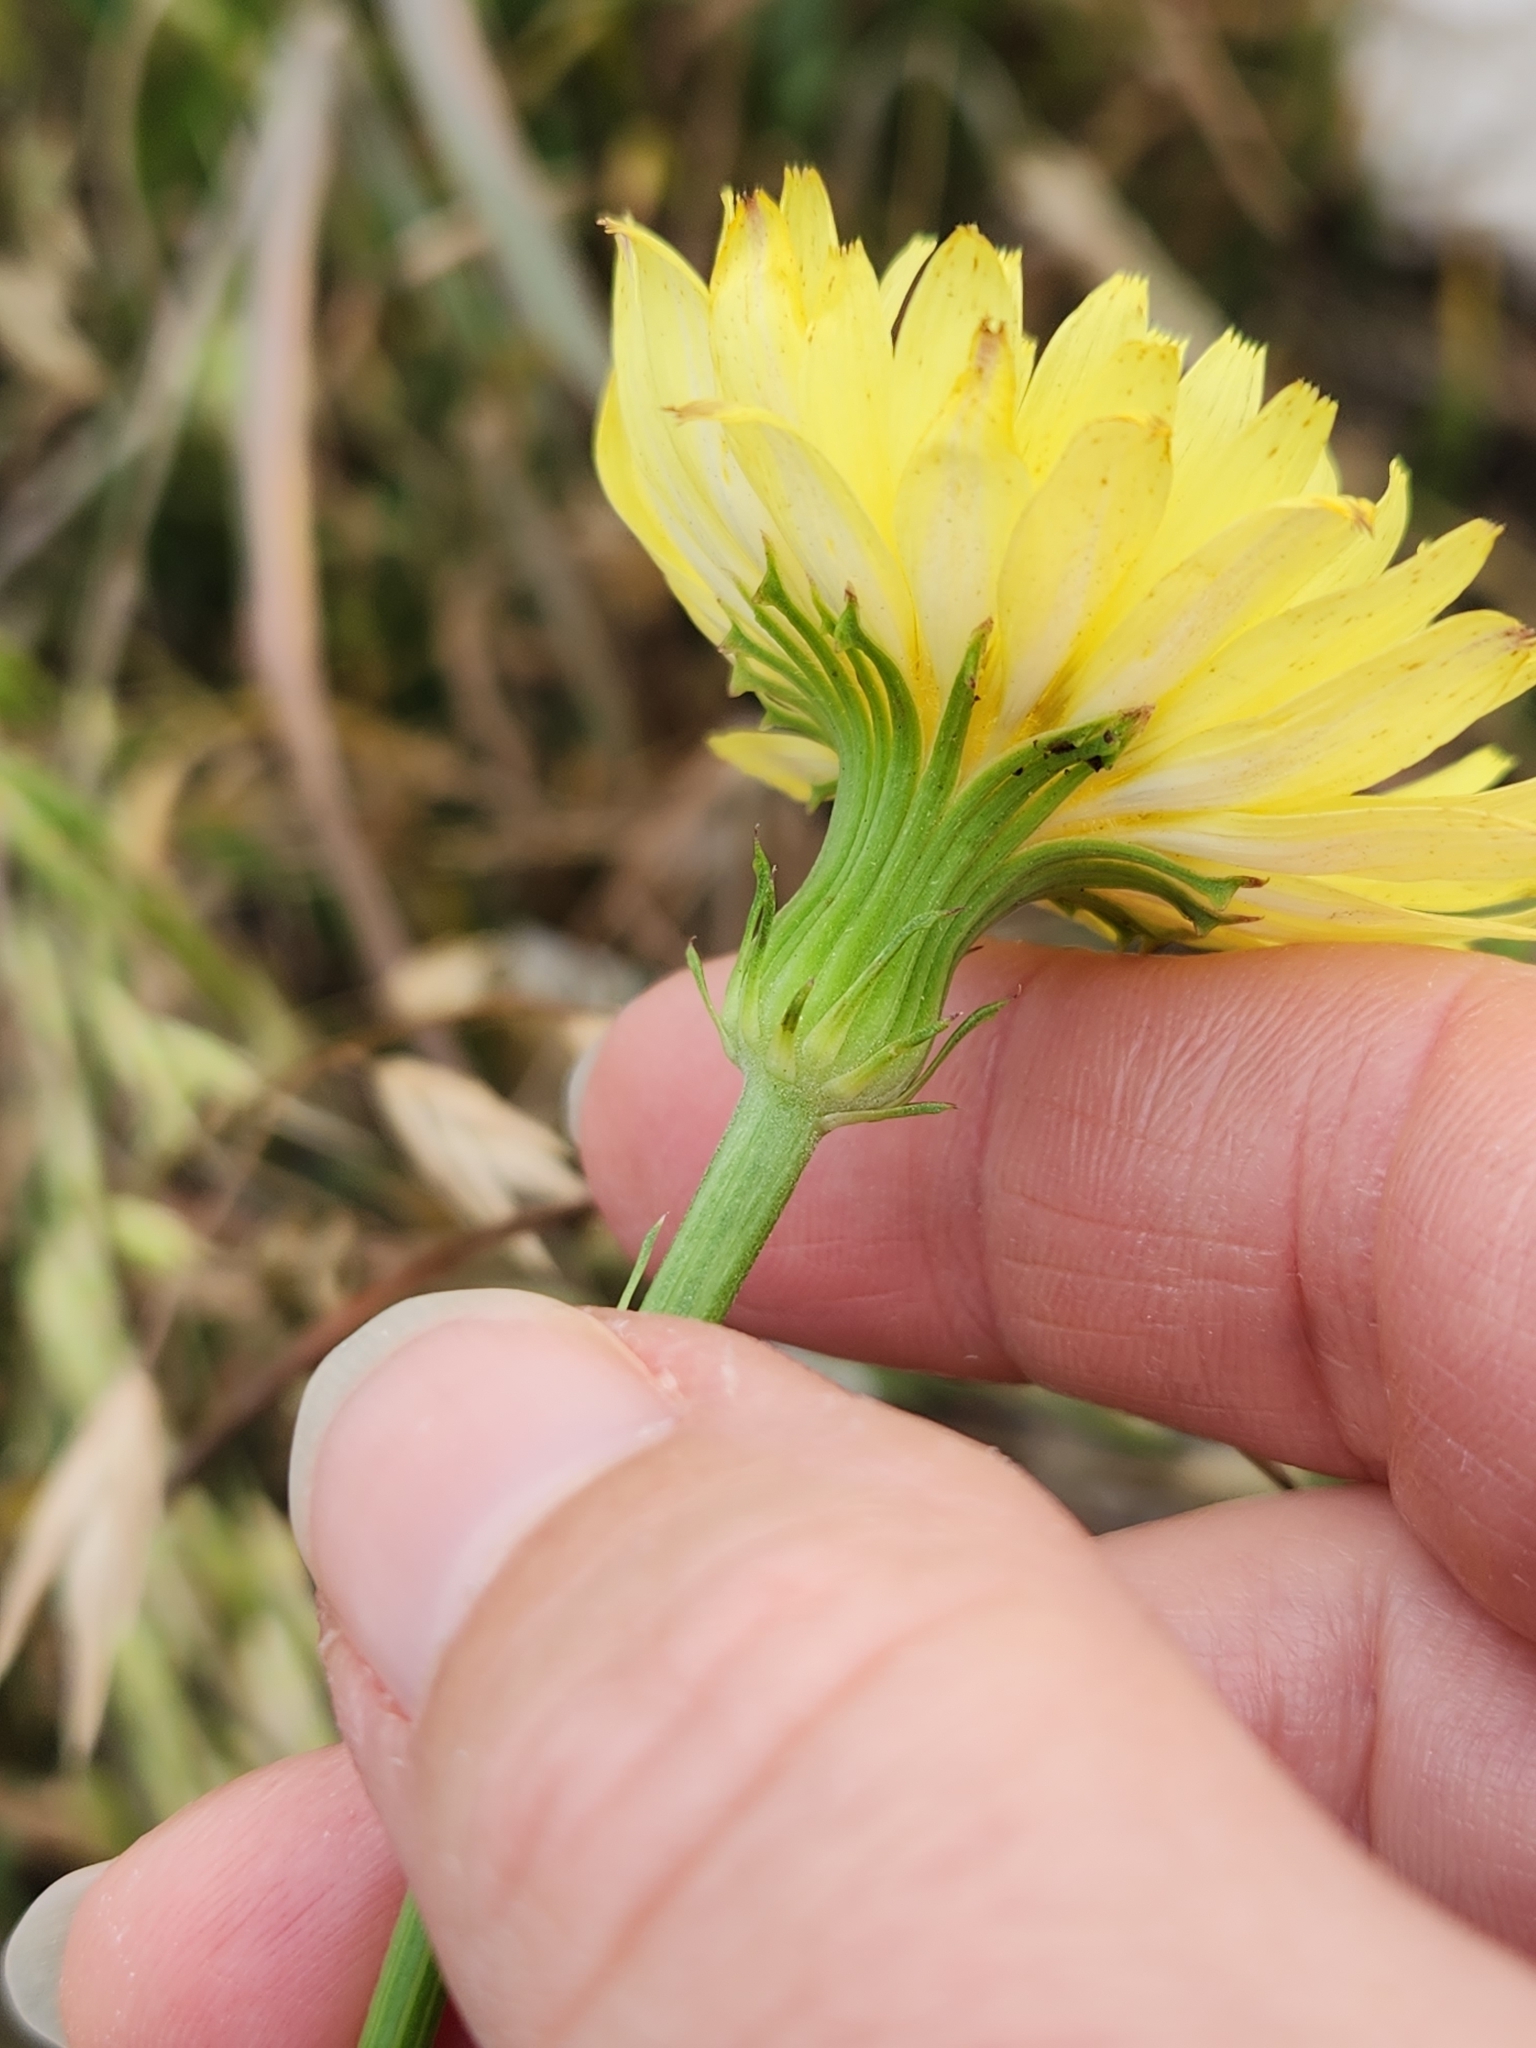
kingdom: Plantae
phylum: Tracheophyta
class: Magnoliopsida
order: Asterales
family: Asteraceae
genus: Pyrrhopappus
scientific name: Pyrrhopappus pauciflorus
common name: Texas false dandelion
